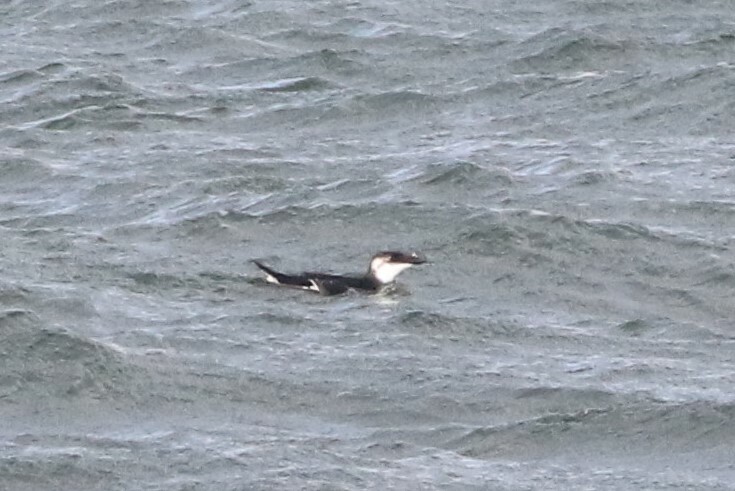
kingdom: Animalia
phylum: Chordata
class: Aves
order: Charadriiformes
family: Alcidae
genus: Alca
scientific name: Alca torda
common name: Razorbill
